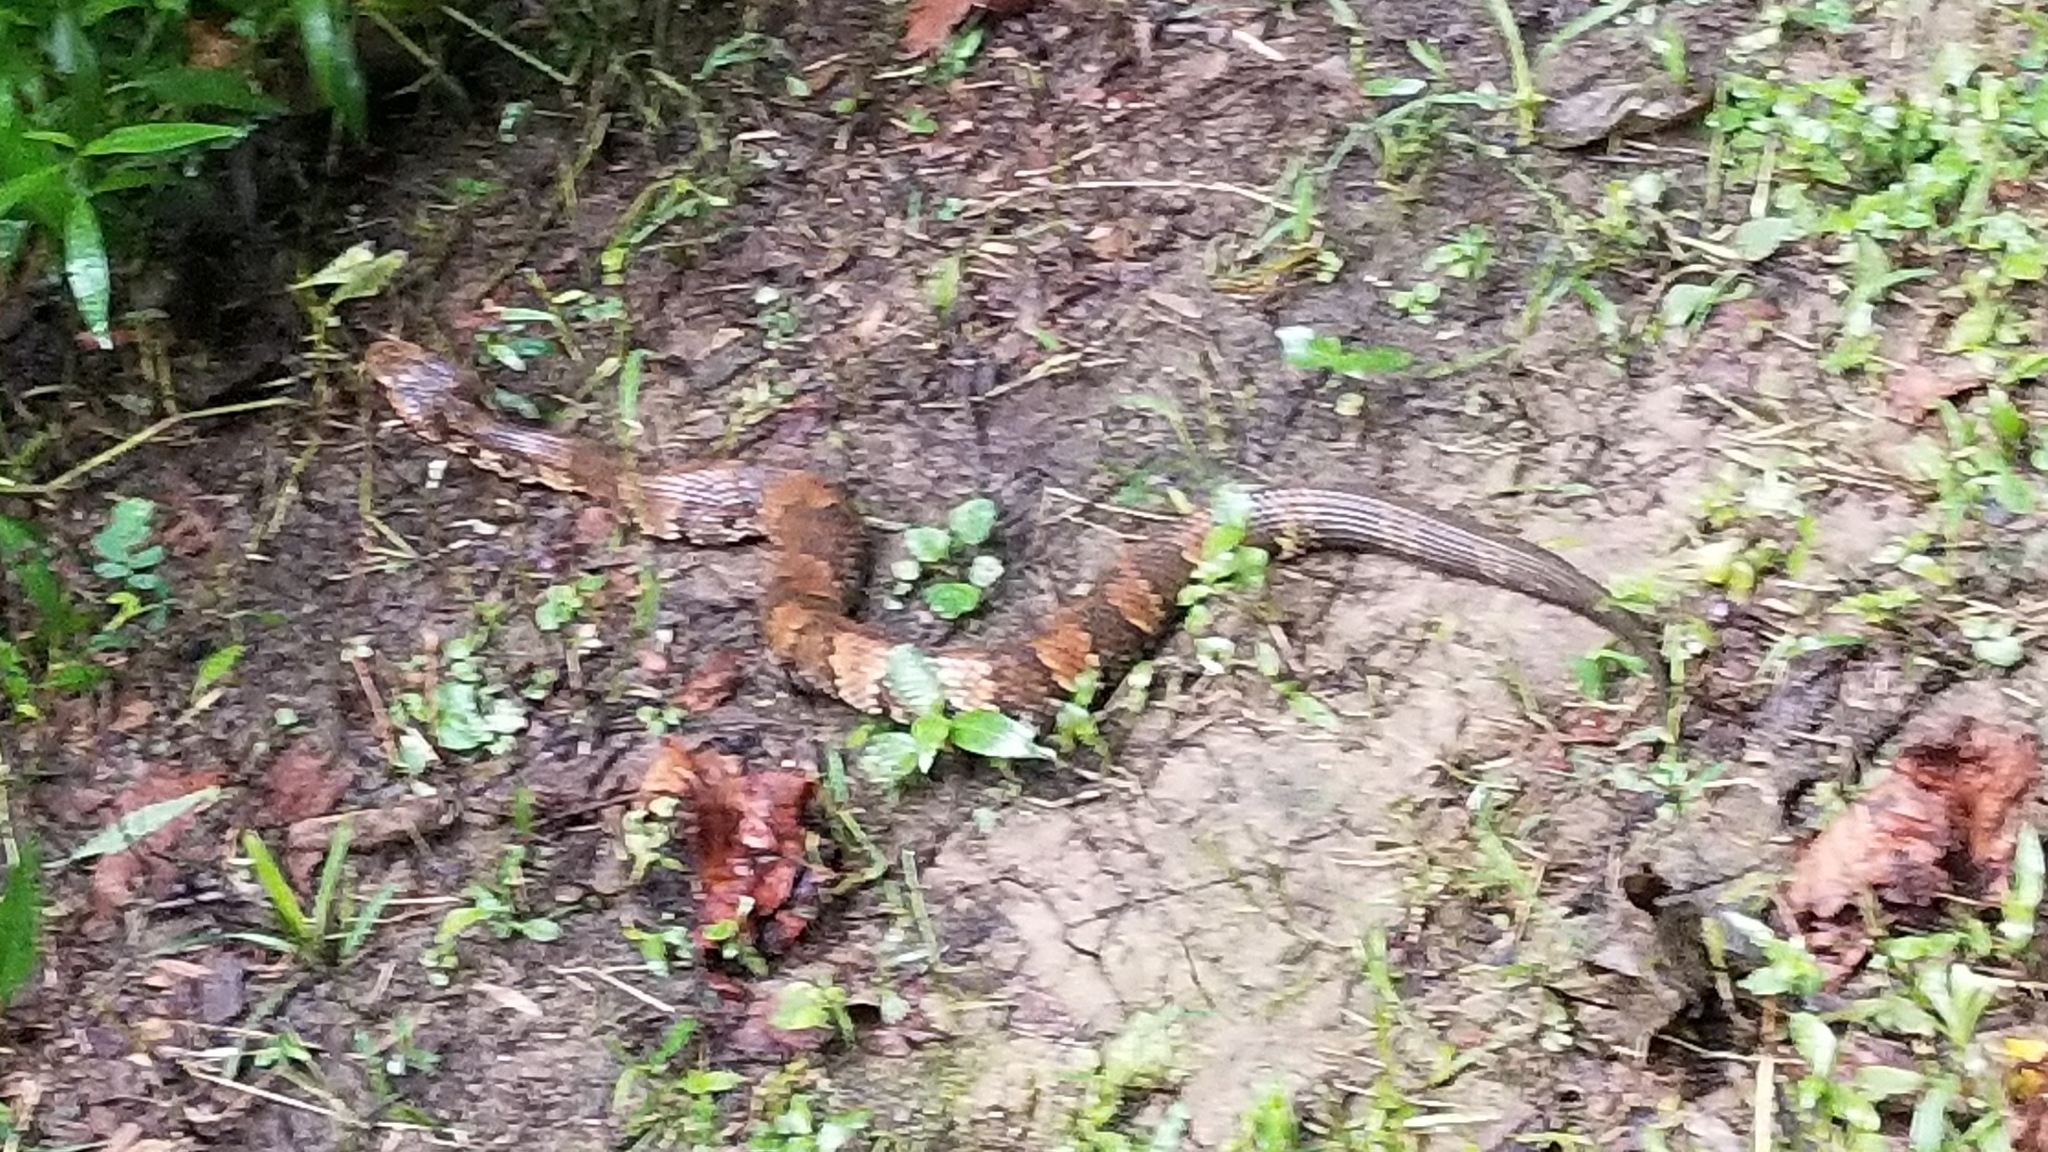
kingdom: Animalia
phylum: Chordata
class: Squamata
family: Viperidae
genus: Agkistrodon
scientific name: Agkistrodon piscivorus
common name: Cottonmouth
